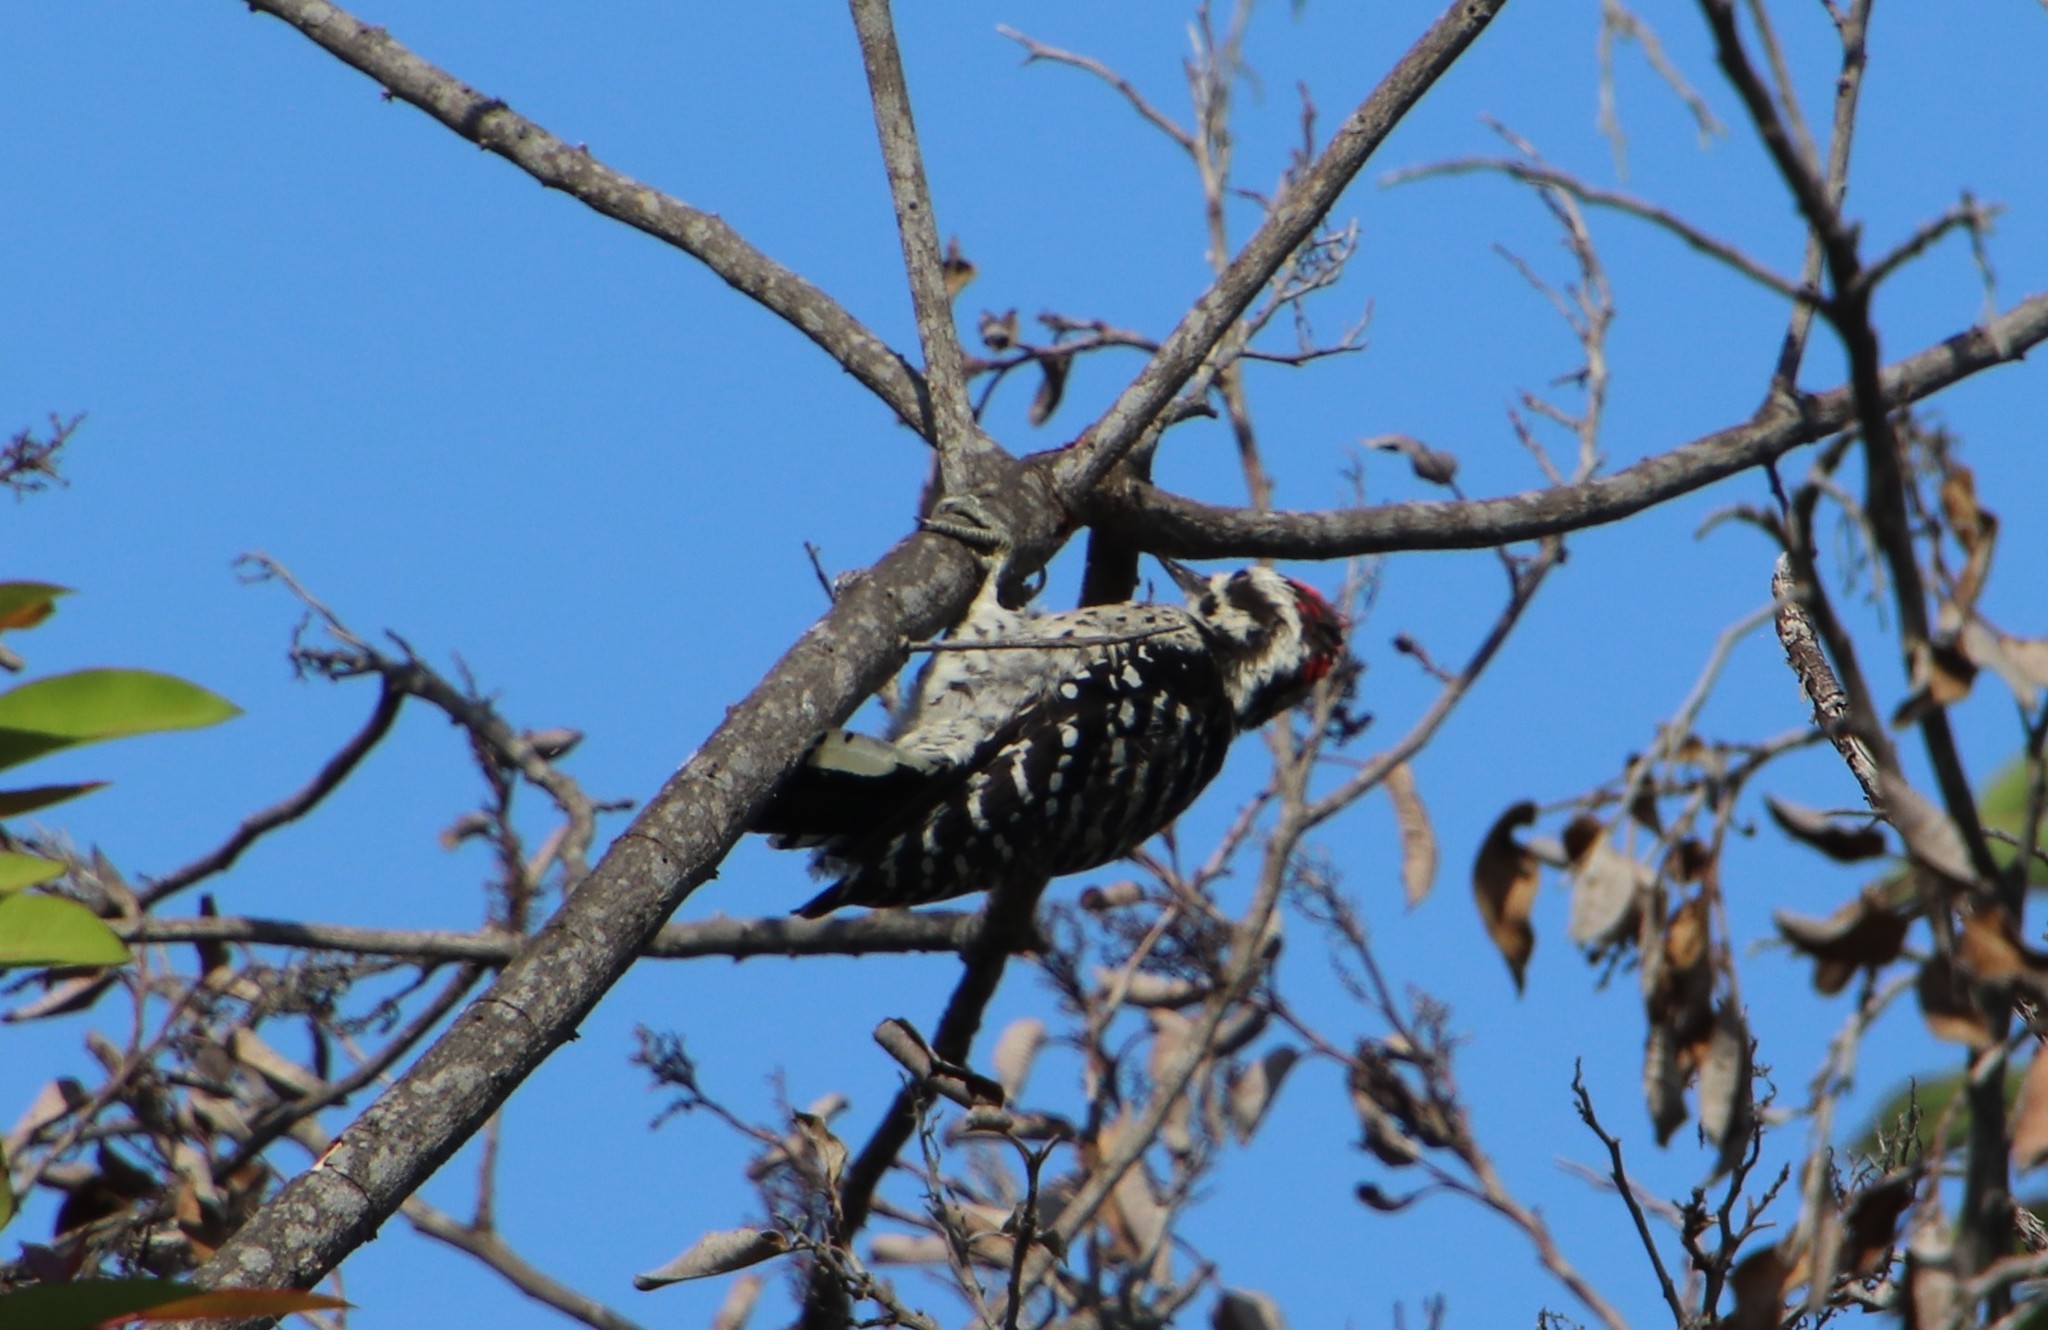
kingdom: Animalia
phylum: Chordata
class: Aves
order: Piciformes
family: Picidae
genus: Dryobates
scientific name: Dryobates nuttallii
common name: Nuttall's woodpecker
